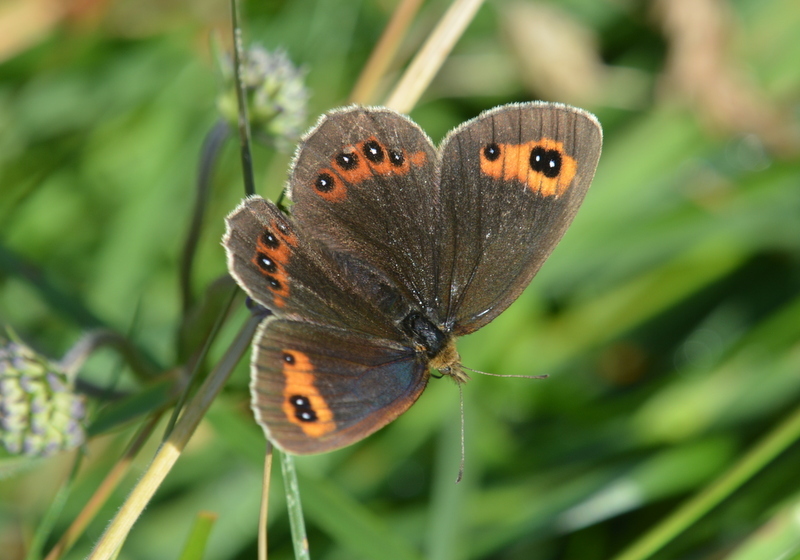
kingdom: Animalia
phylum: Arthropoda
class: Insecta
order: Lepidoptera
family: Nymphalidae
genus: Erebia
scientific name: Erebia aethiops
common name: Scotch argus
